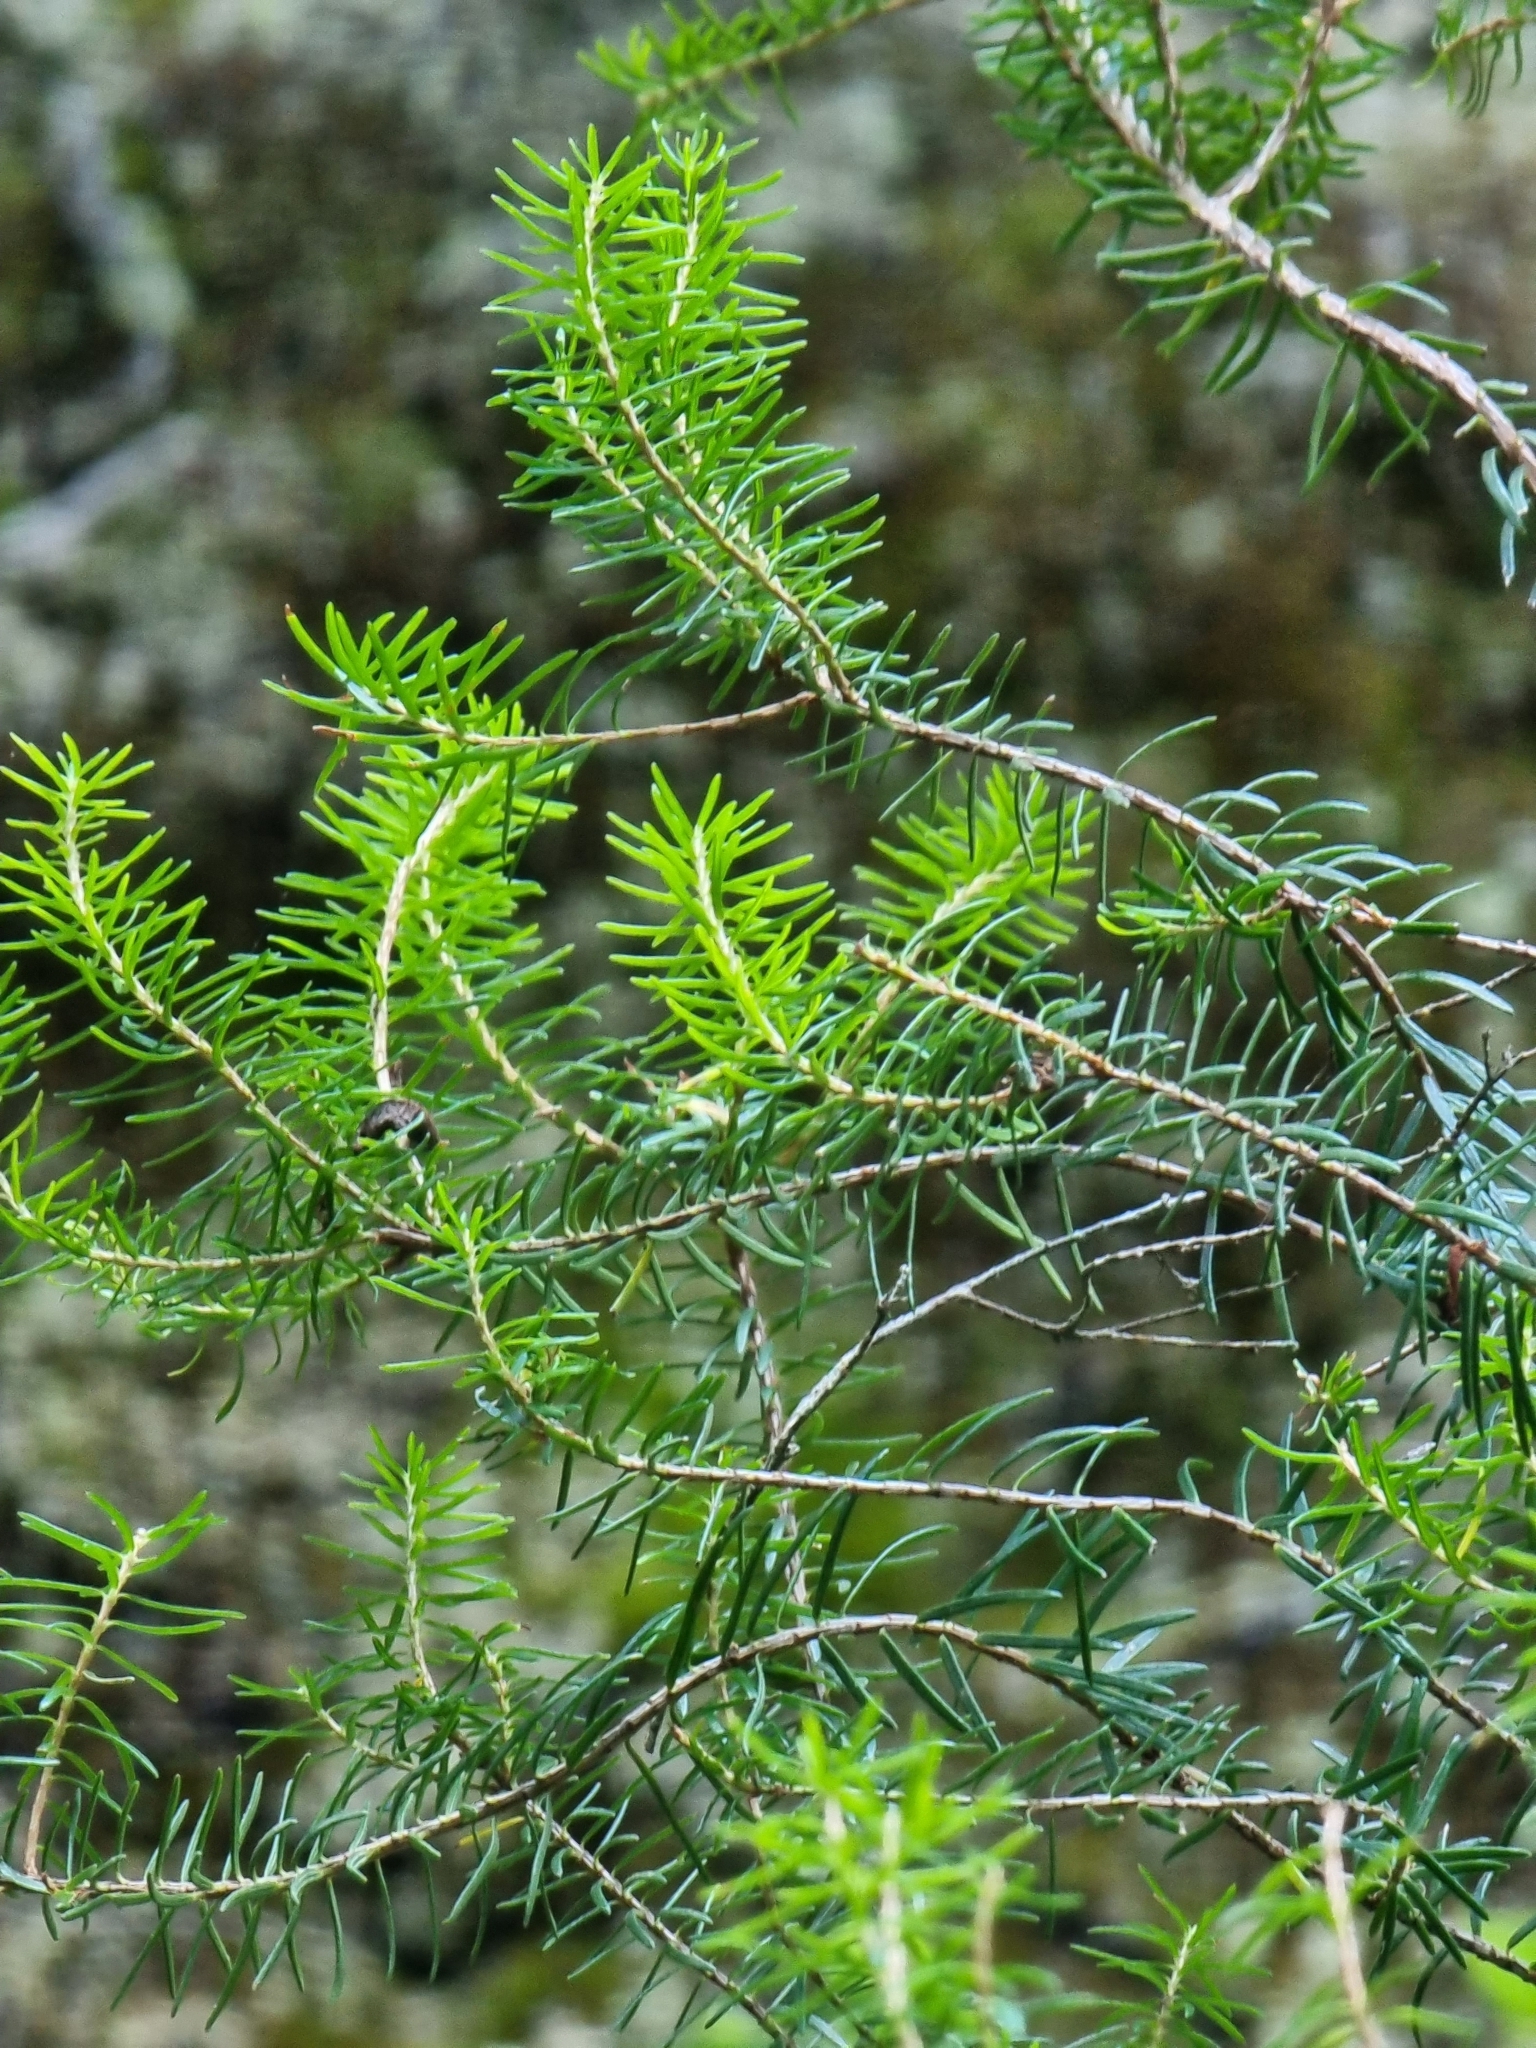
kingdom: Plantae
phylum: Tracheophyta
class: Magnoliopsida
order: Ericales
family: Ericaceae
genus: Erica
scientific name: Erica platycodon
